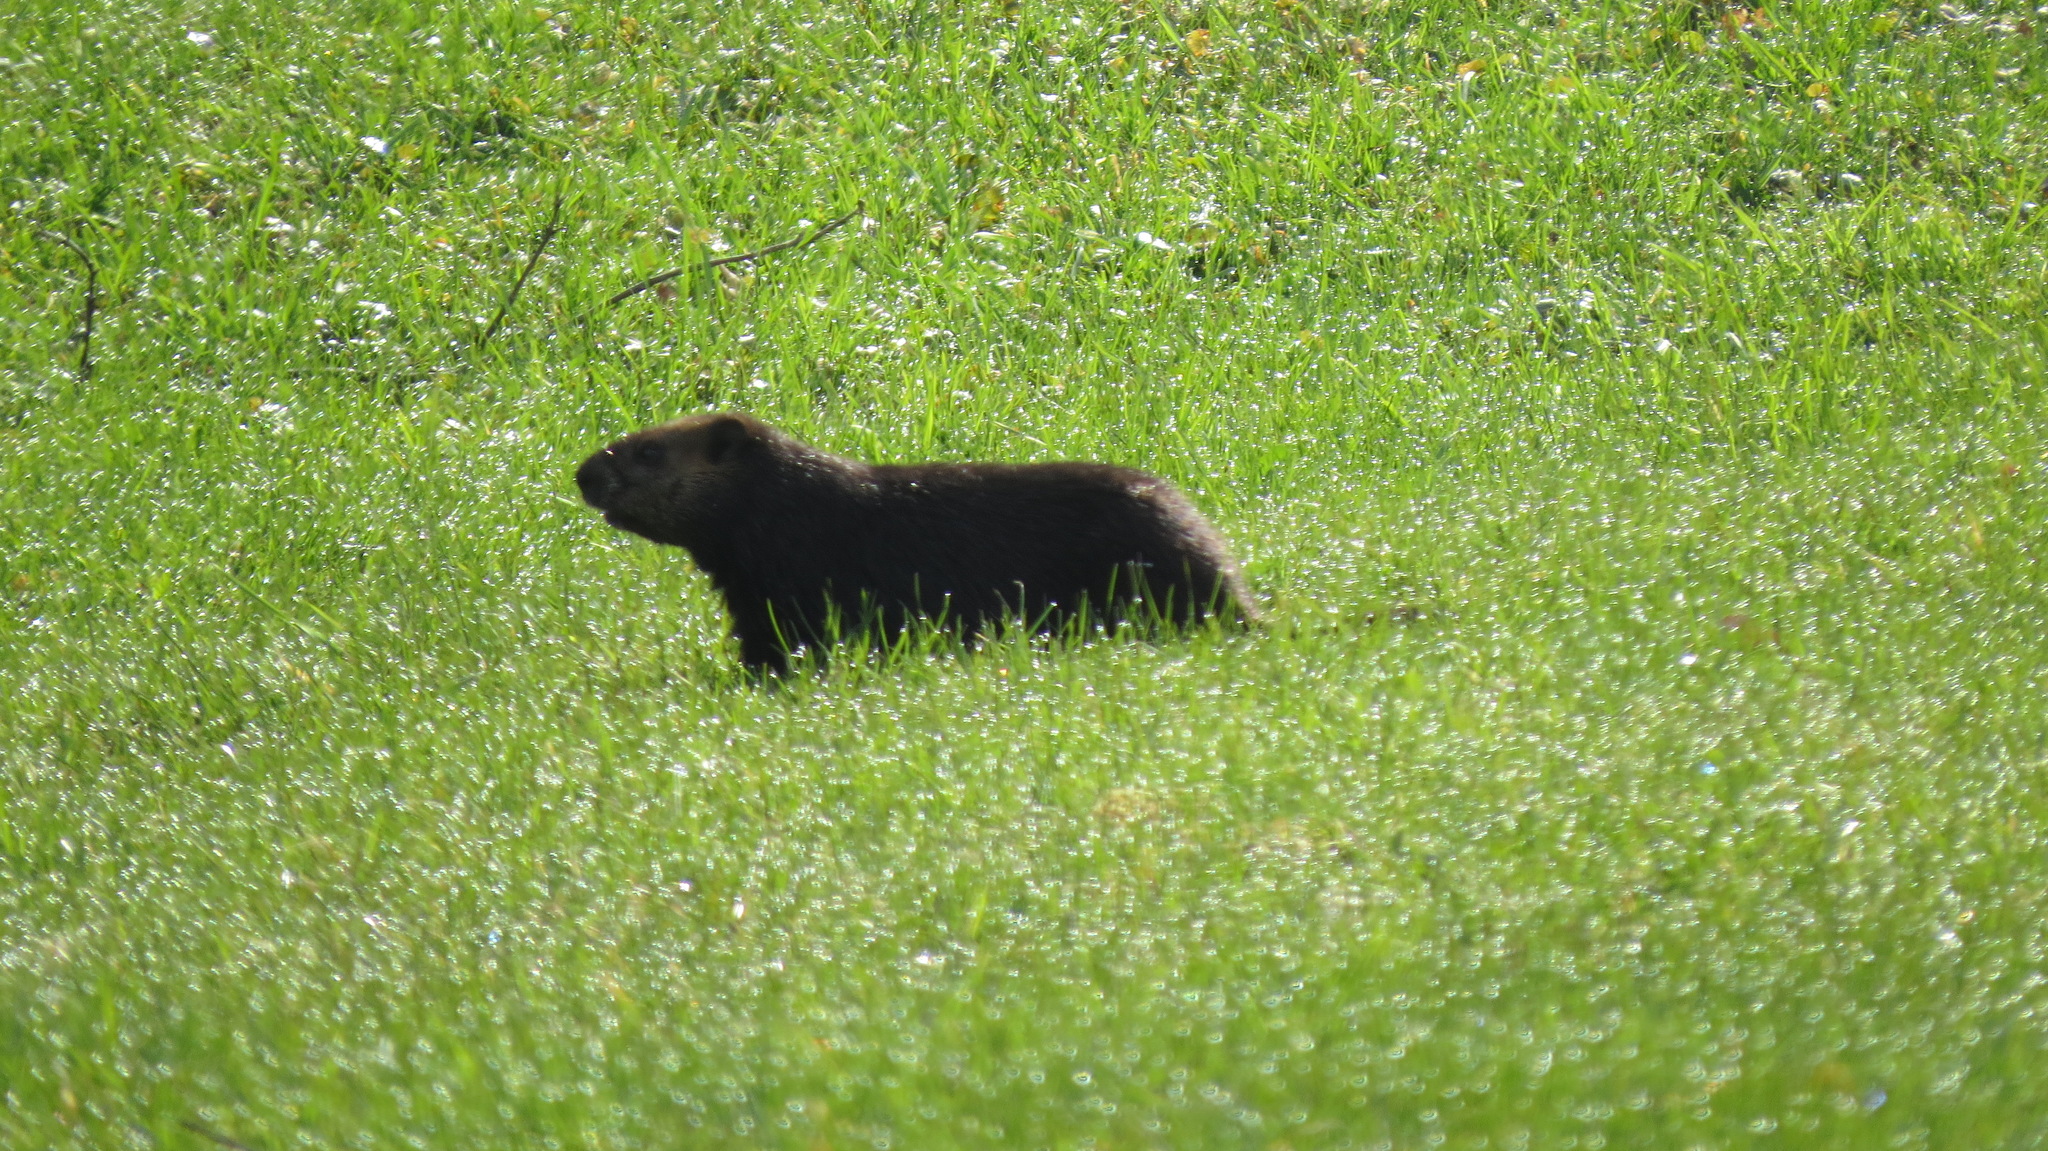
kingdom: Animalia
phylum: Chordata
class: Mammalia
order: Rodentia
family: Sciuridae
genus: Marmota
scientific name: Marmota monax
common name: Groundhog
